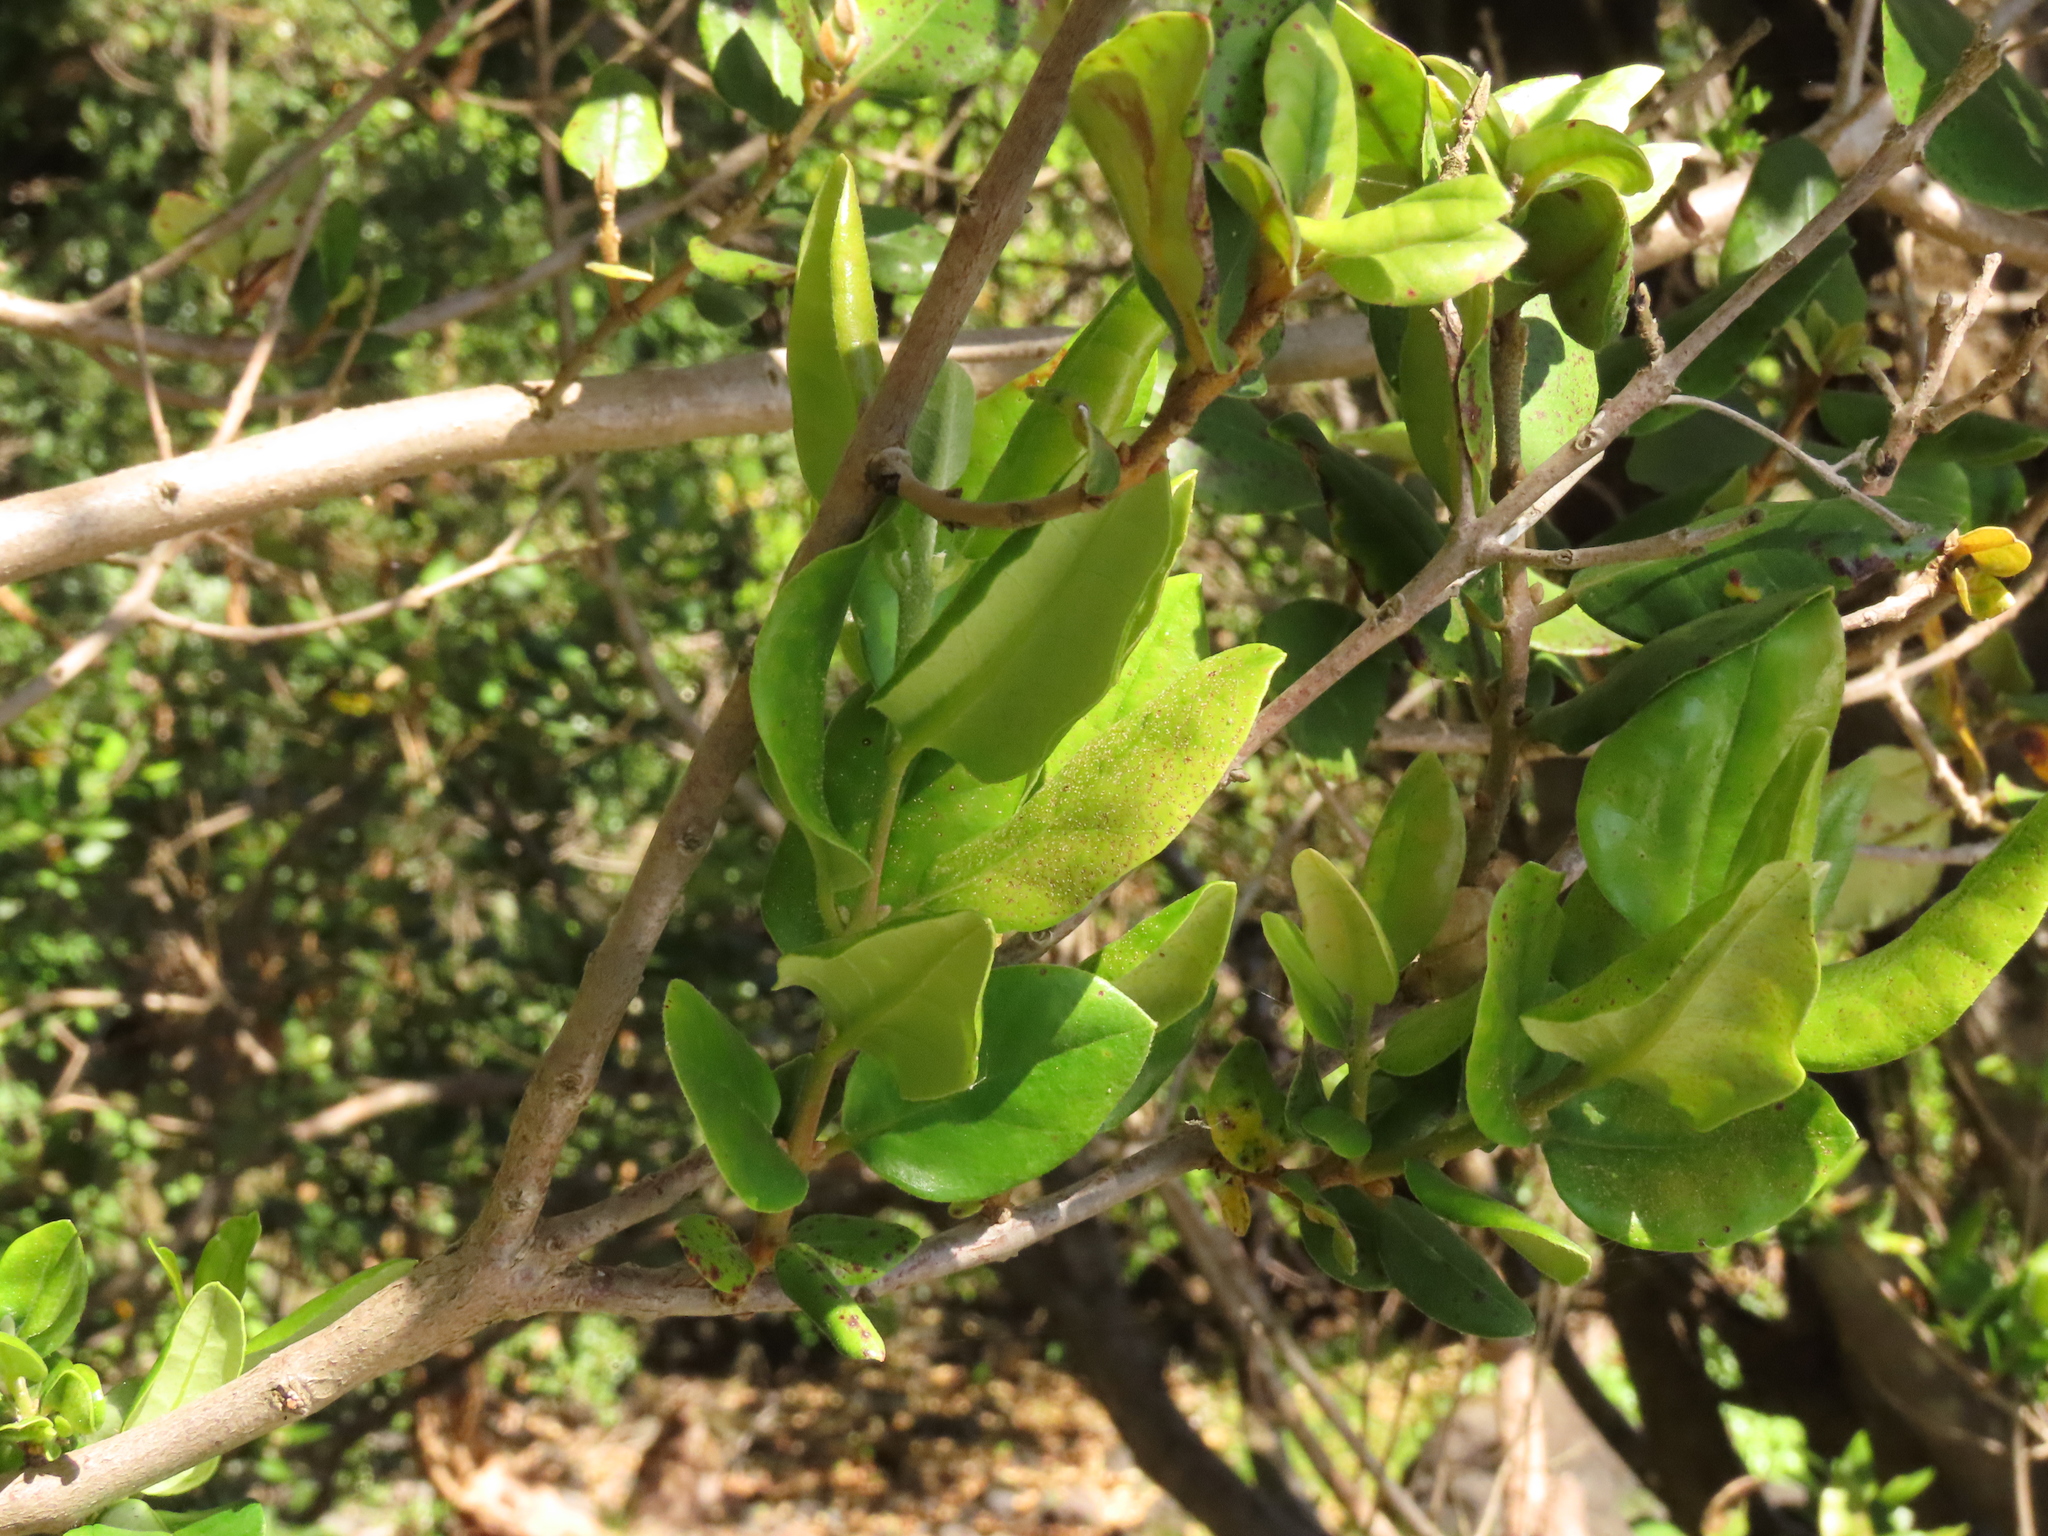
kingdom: Plantae
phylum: Tracheophyta
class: Magnoliopsida
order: Myrtales
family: Myrtaceae
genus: Myrceugenia
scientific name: Myrceugenia exsucca
